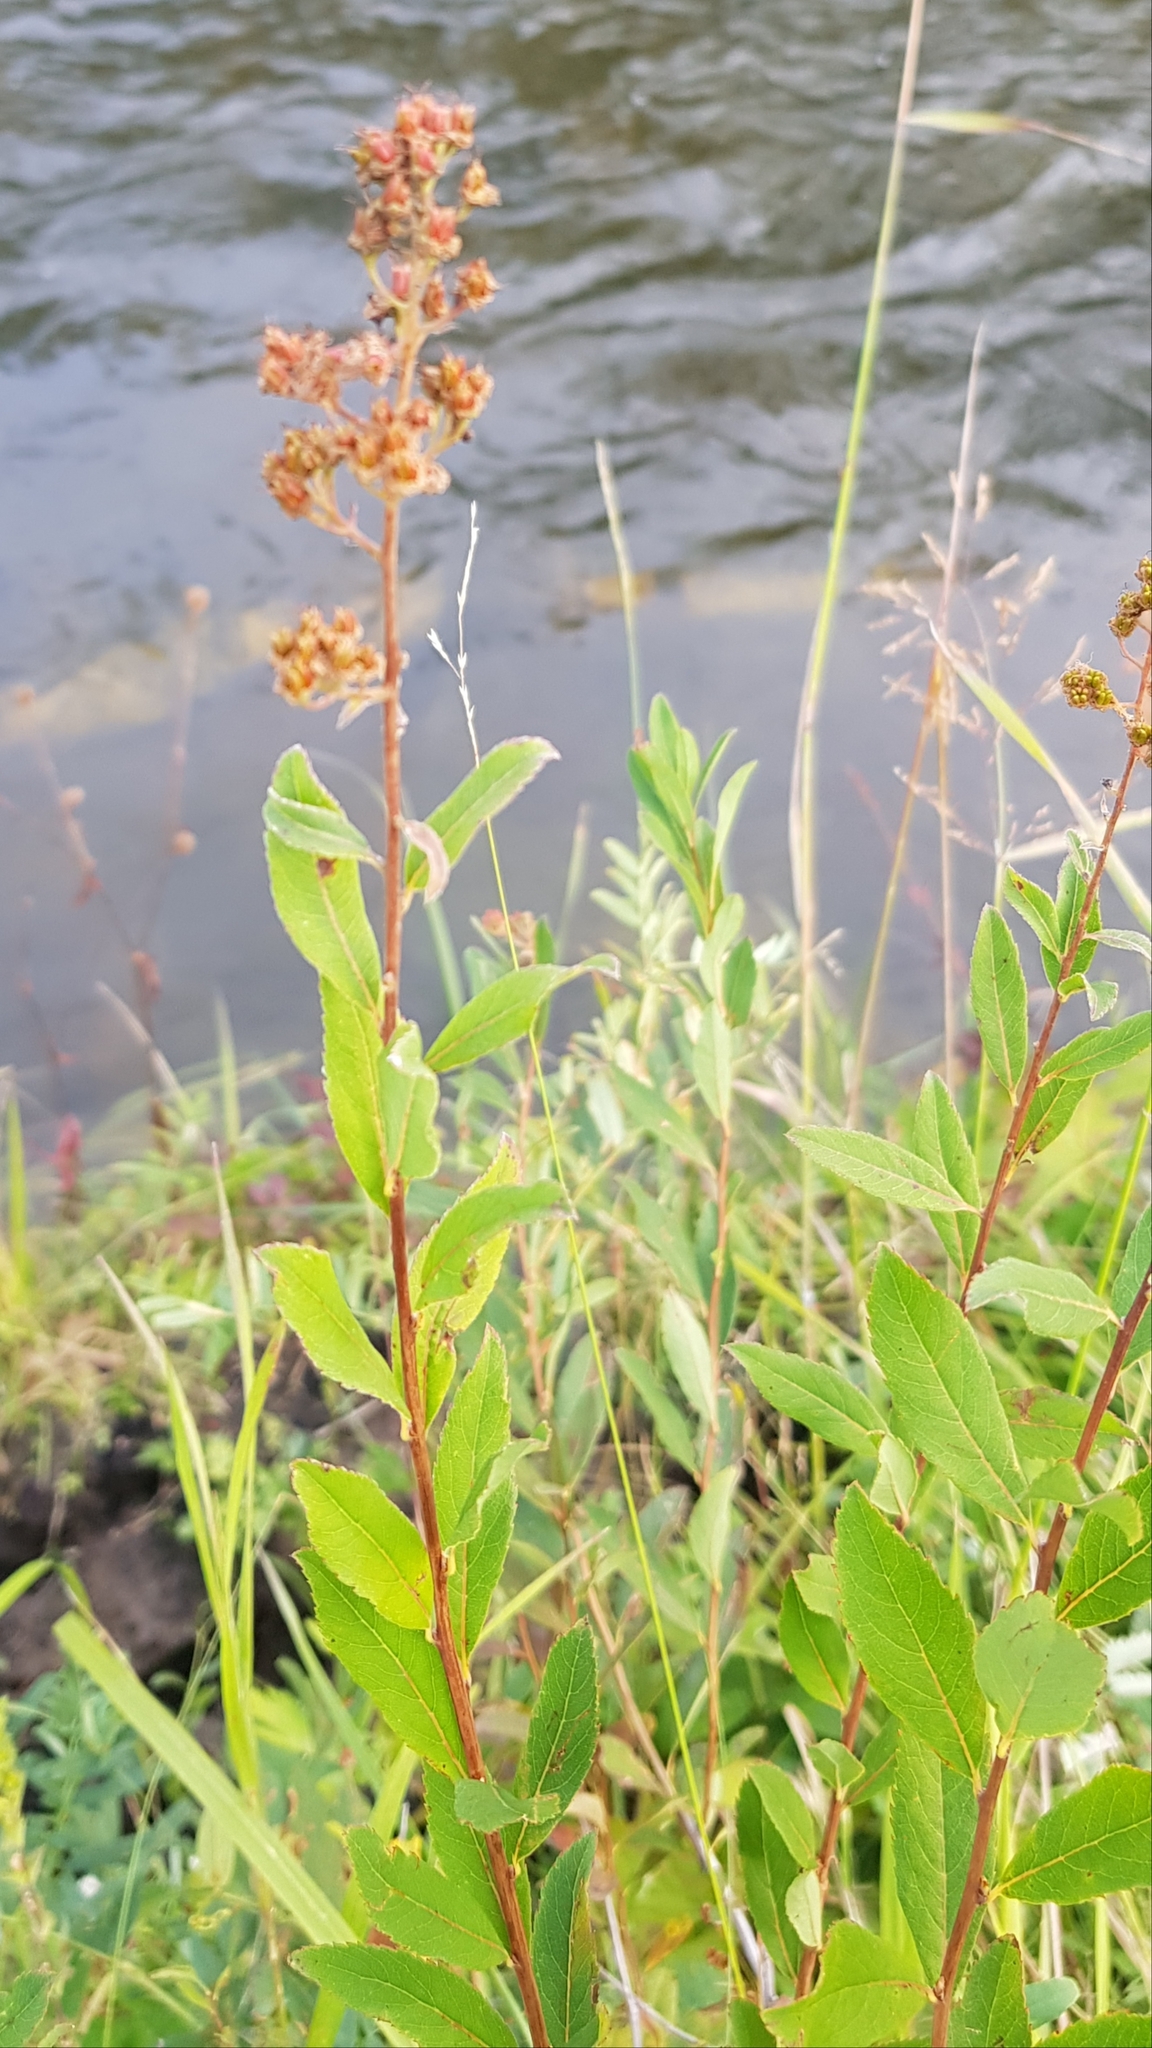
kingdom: Plantae
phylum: Tracheophyta
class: Magnoliopsida
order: Rosales
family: Rosaceae
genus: Spiraea
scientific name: Spiraea salicifolia
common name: Bridewort
